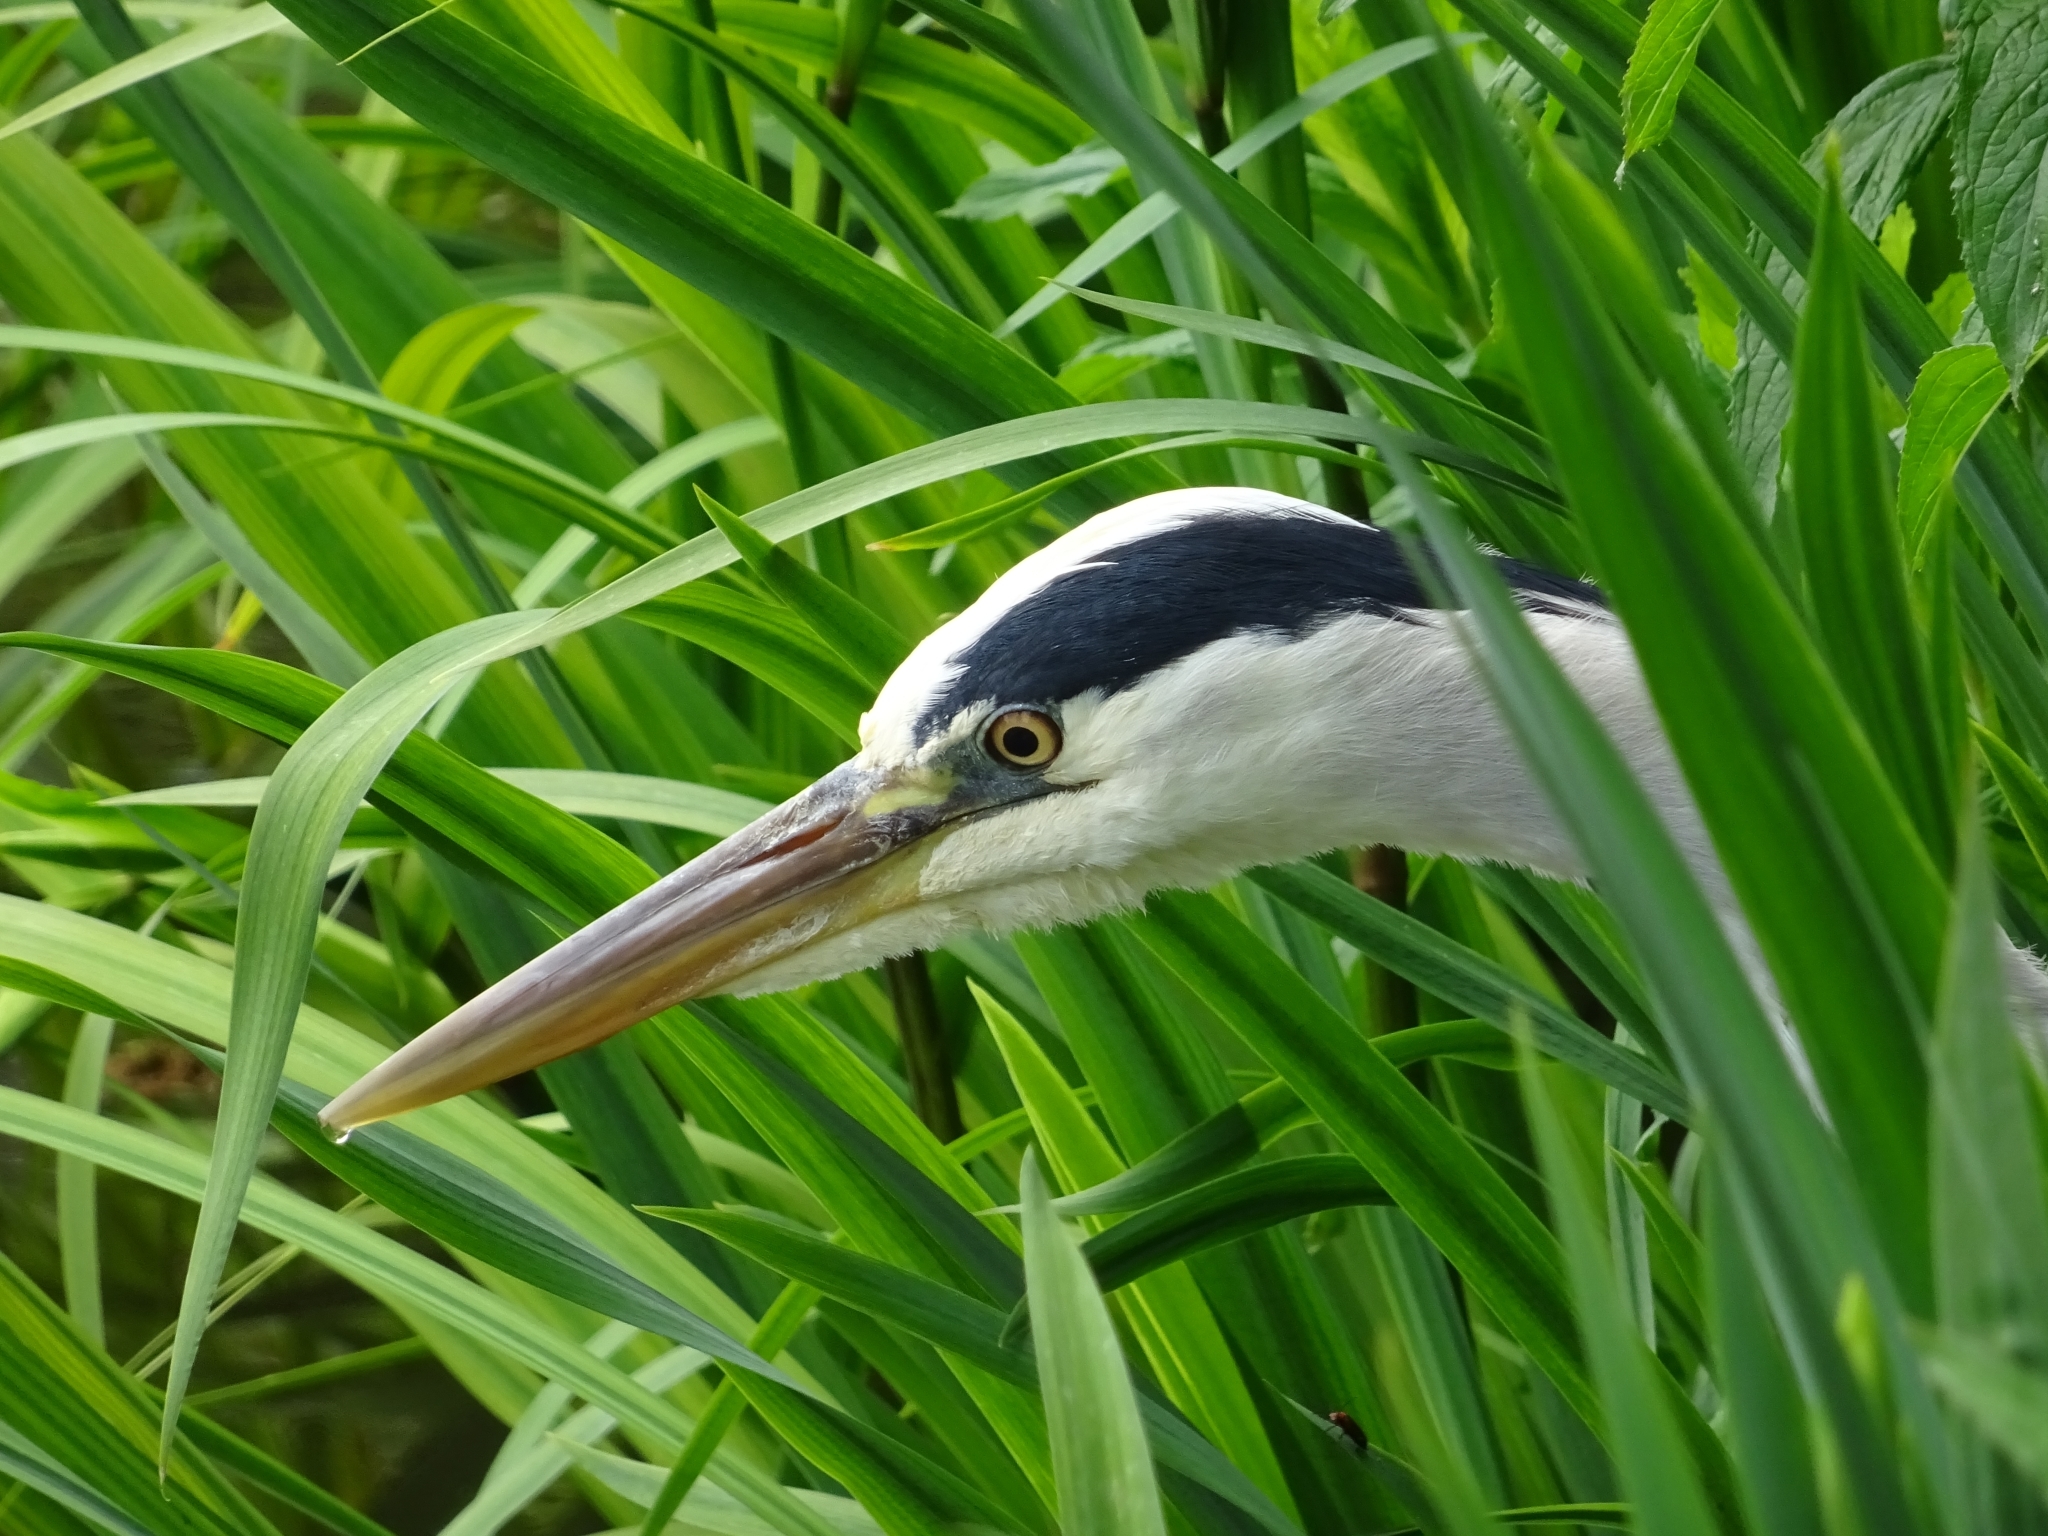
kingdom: Animalia
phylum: Chordata
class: Aves
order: Pelecaniformes
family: Ardeidae
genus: Ardea
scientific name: Ardea cinerea
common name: Grey heron
